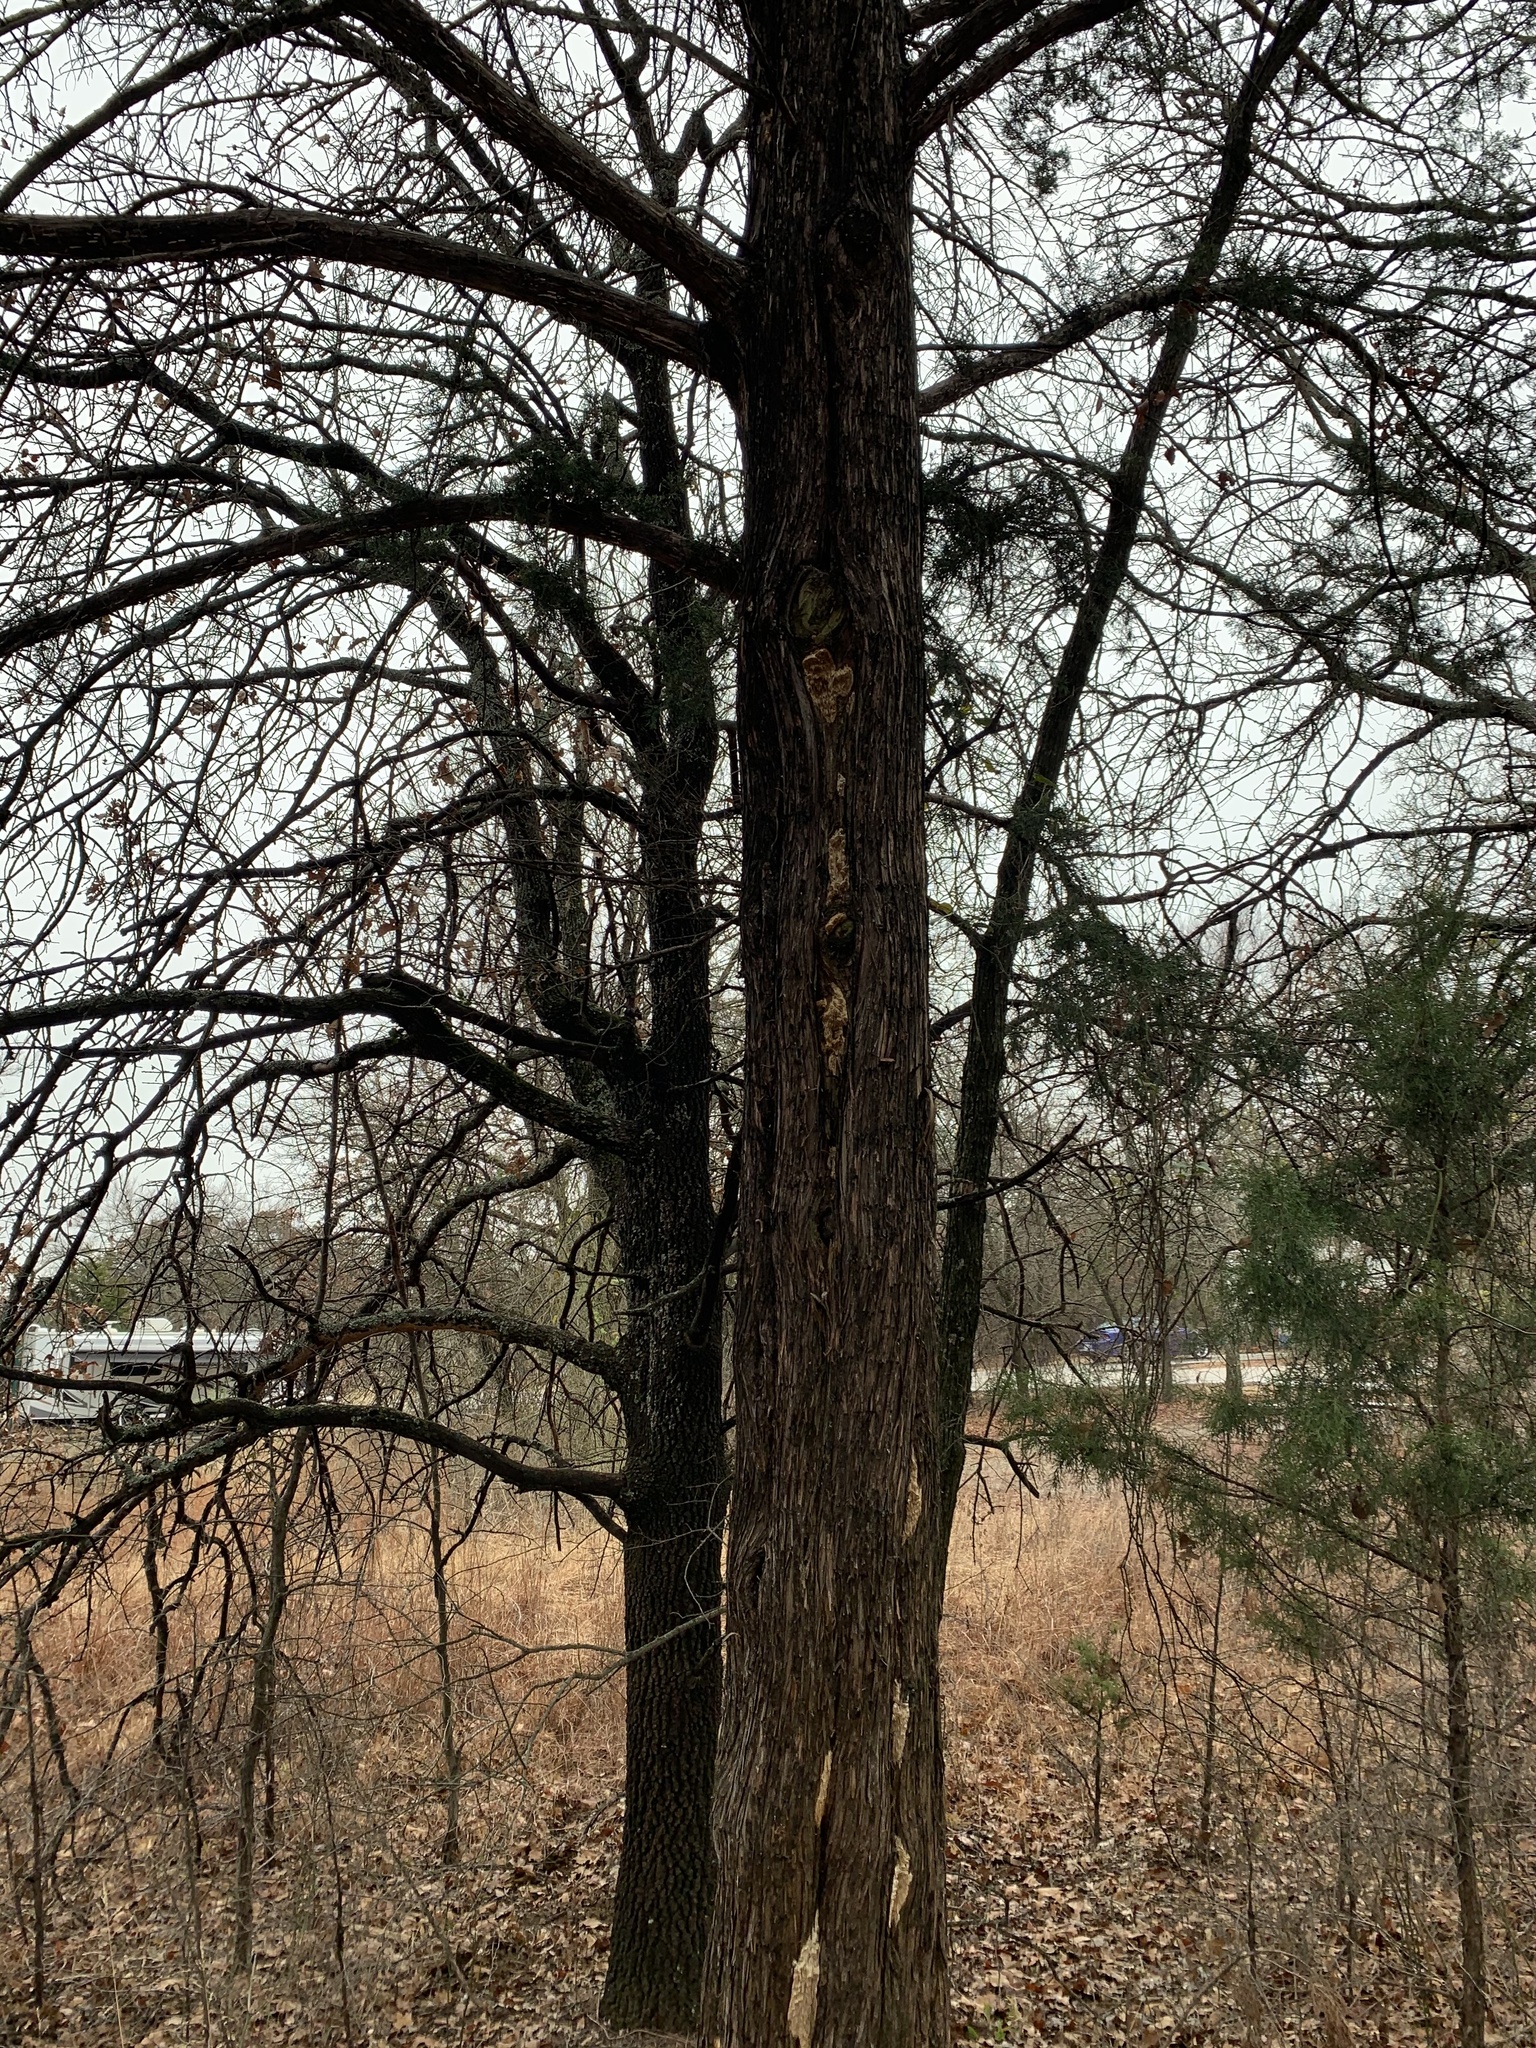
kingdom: Plantae
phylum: Tracheophyta
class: Pinopsida
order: Pinales
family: Cupressaceae
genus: Juniperus
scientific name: Juniperus virginiana
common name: Red juniper
